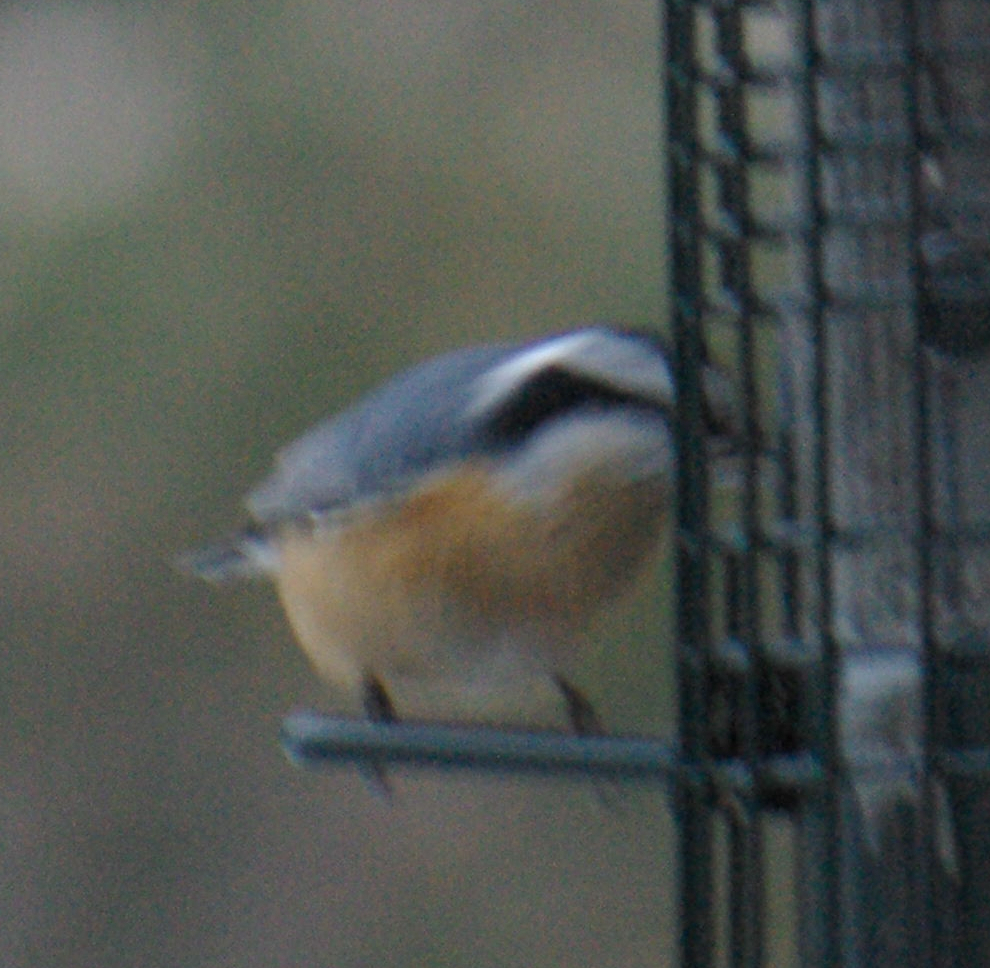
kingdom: Animalia
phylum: Chordata
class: Aves
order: Passeriformes
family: Sittidae
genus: Sitta
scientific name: Sitta canadensis
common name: Red-breasted nuthatch
